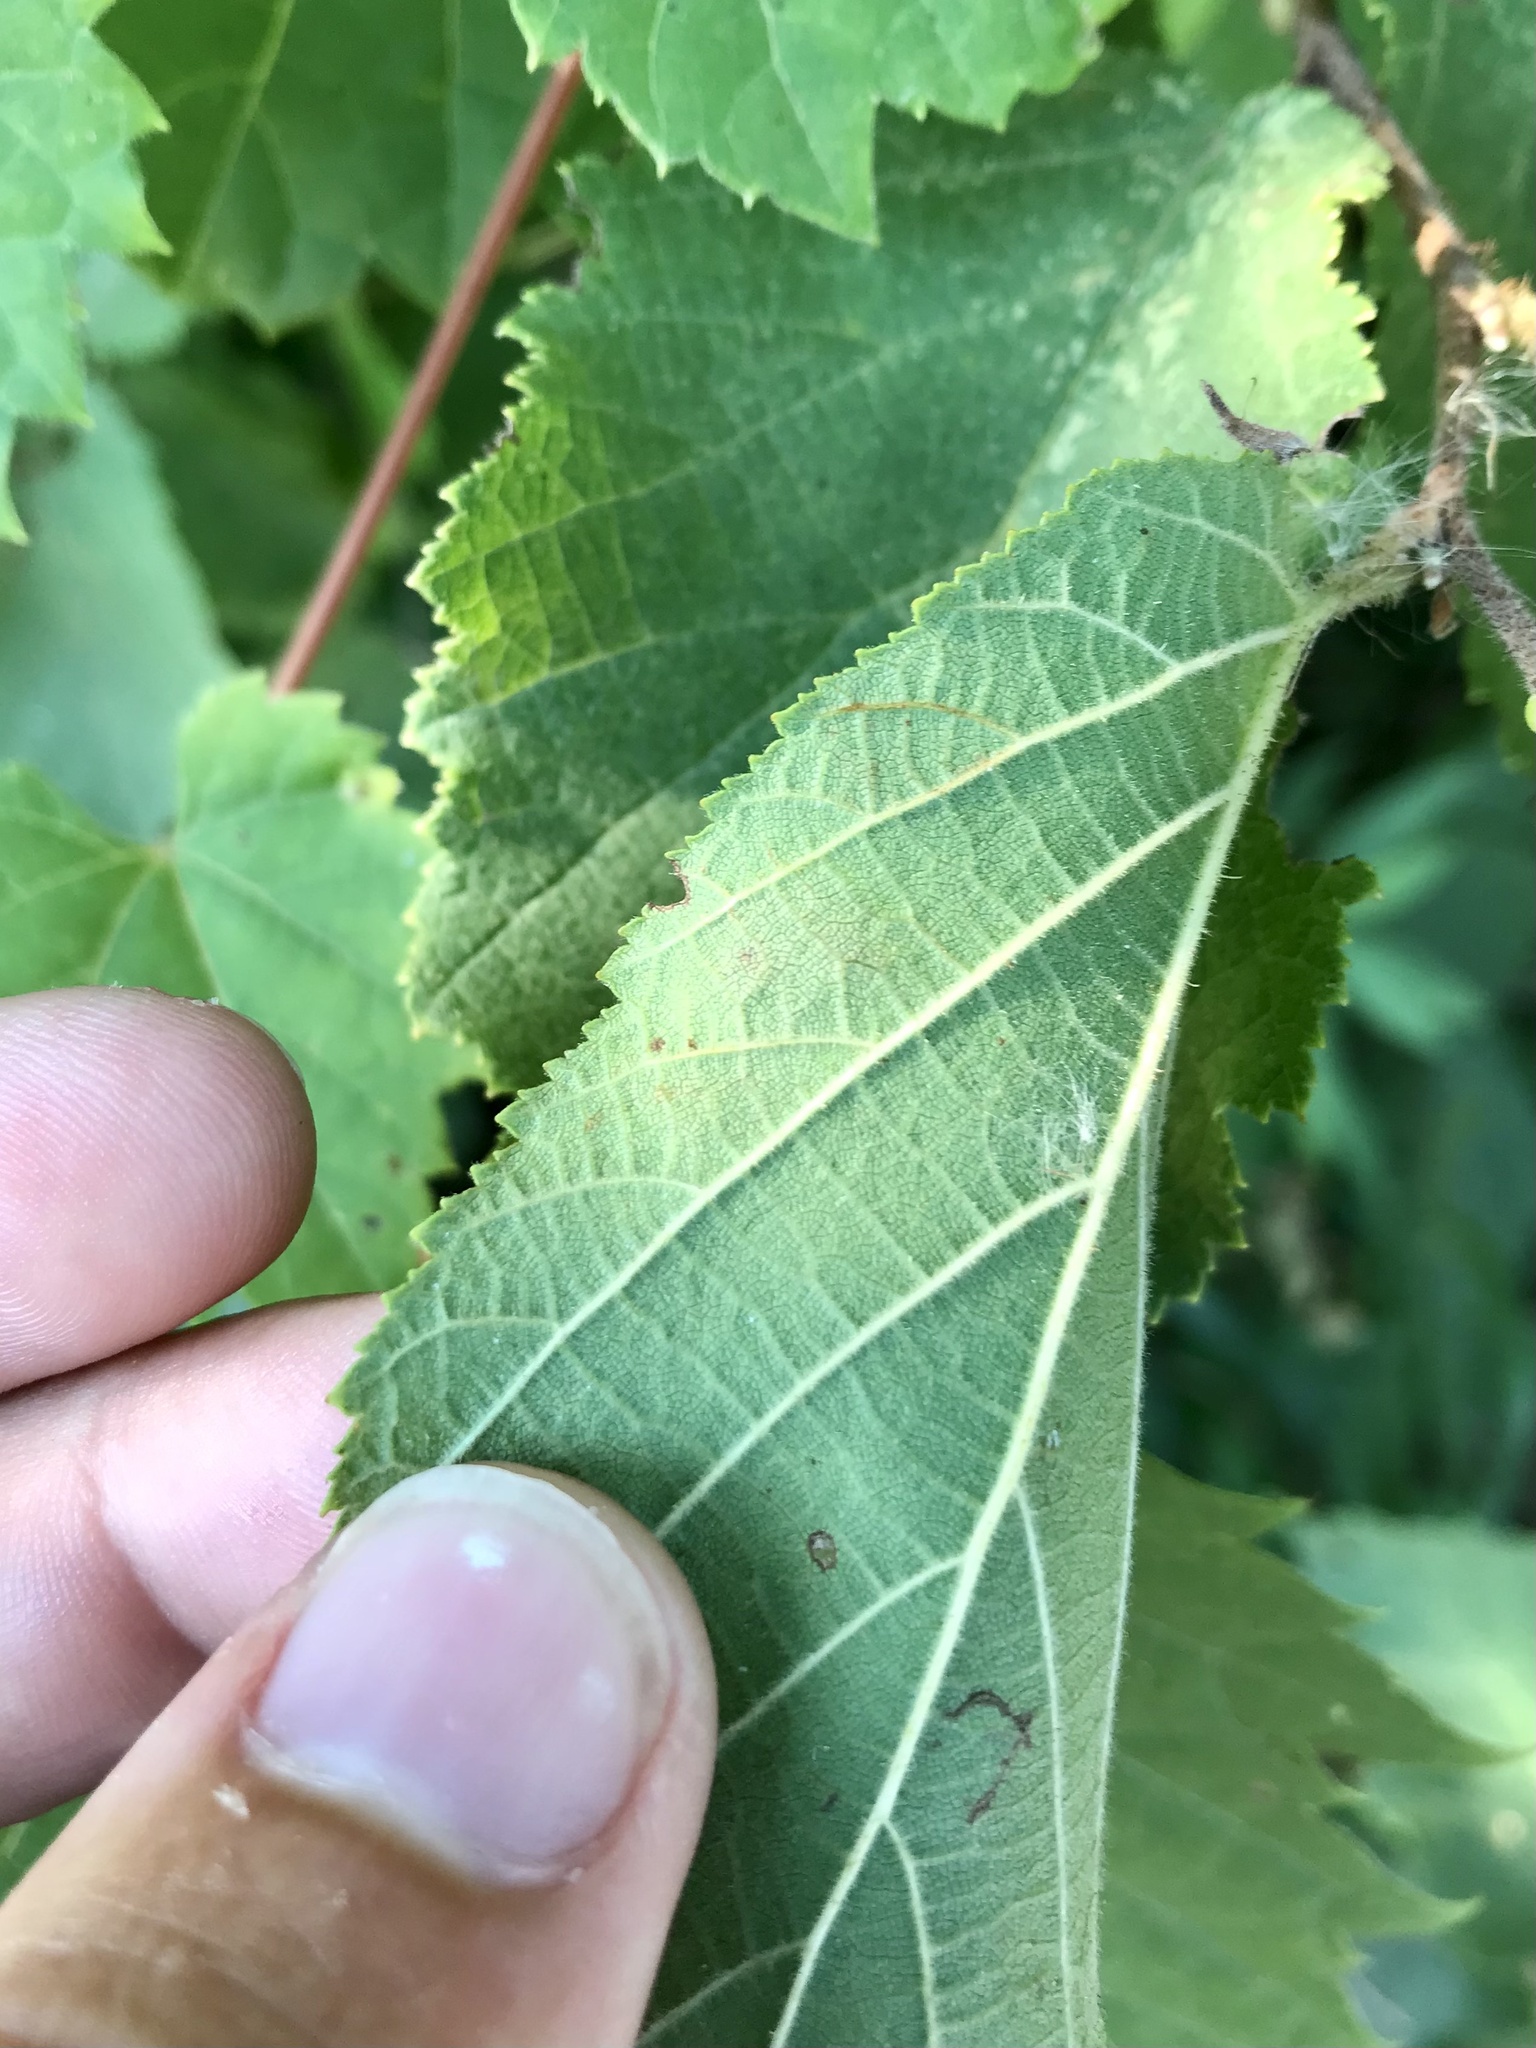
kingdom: Animalia
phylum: Arthropoda
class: Insecta
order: Lepidoptera
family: Gracillariidae
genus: Cameraria
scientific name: Cameraria corylisella
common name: Hazel blotchminer
